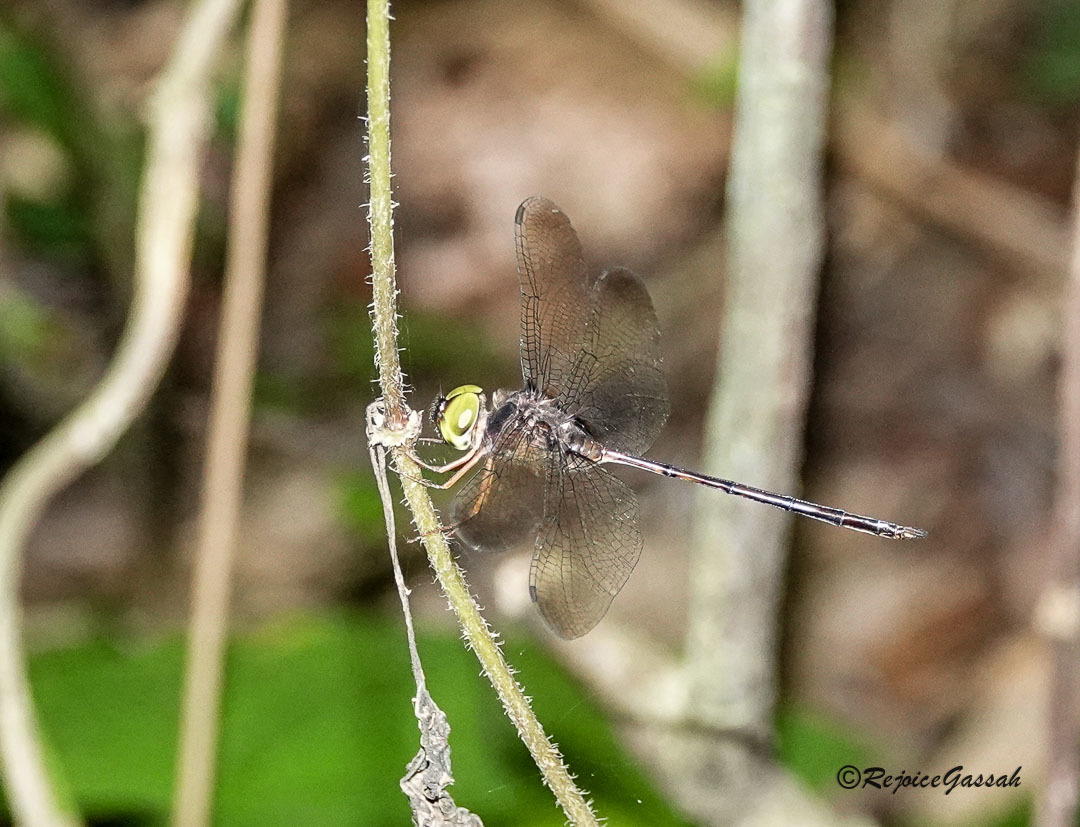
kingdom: Animalia
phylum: Arthropoda
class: Insecta
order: Odonata
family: Libellulidae
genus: Zyxomma
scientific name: Zyxomma petiolatum
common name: Dingy dusk-darter
